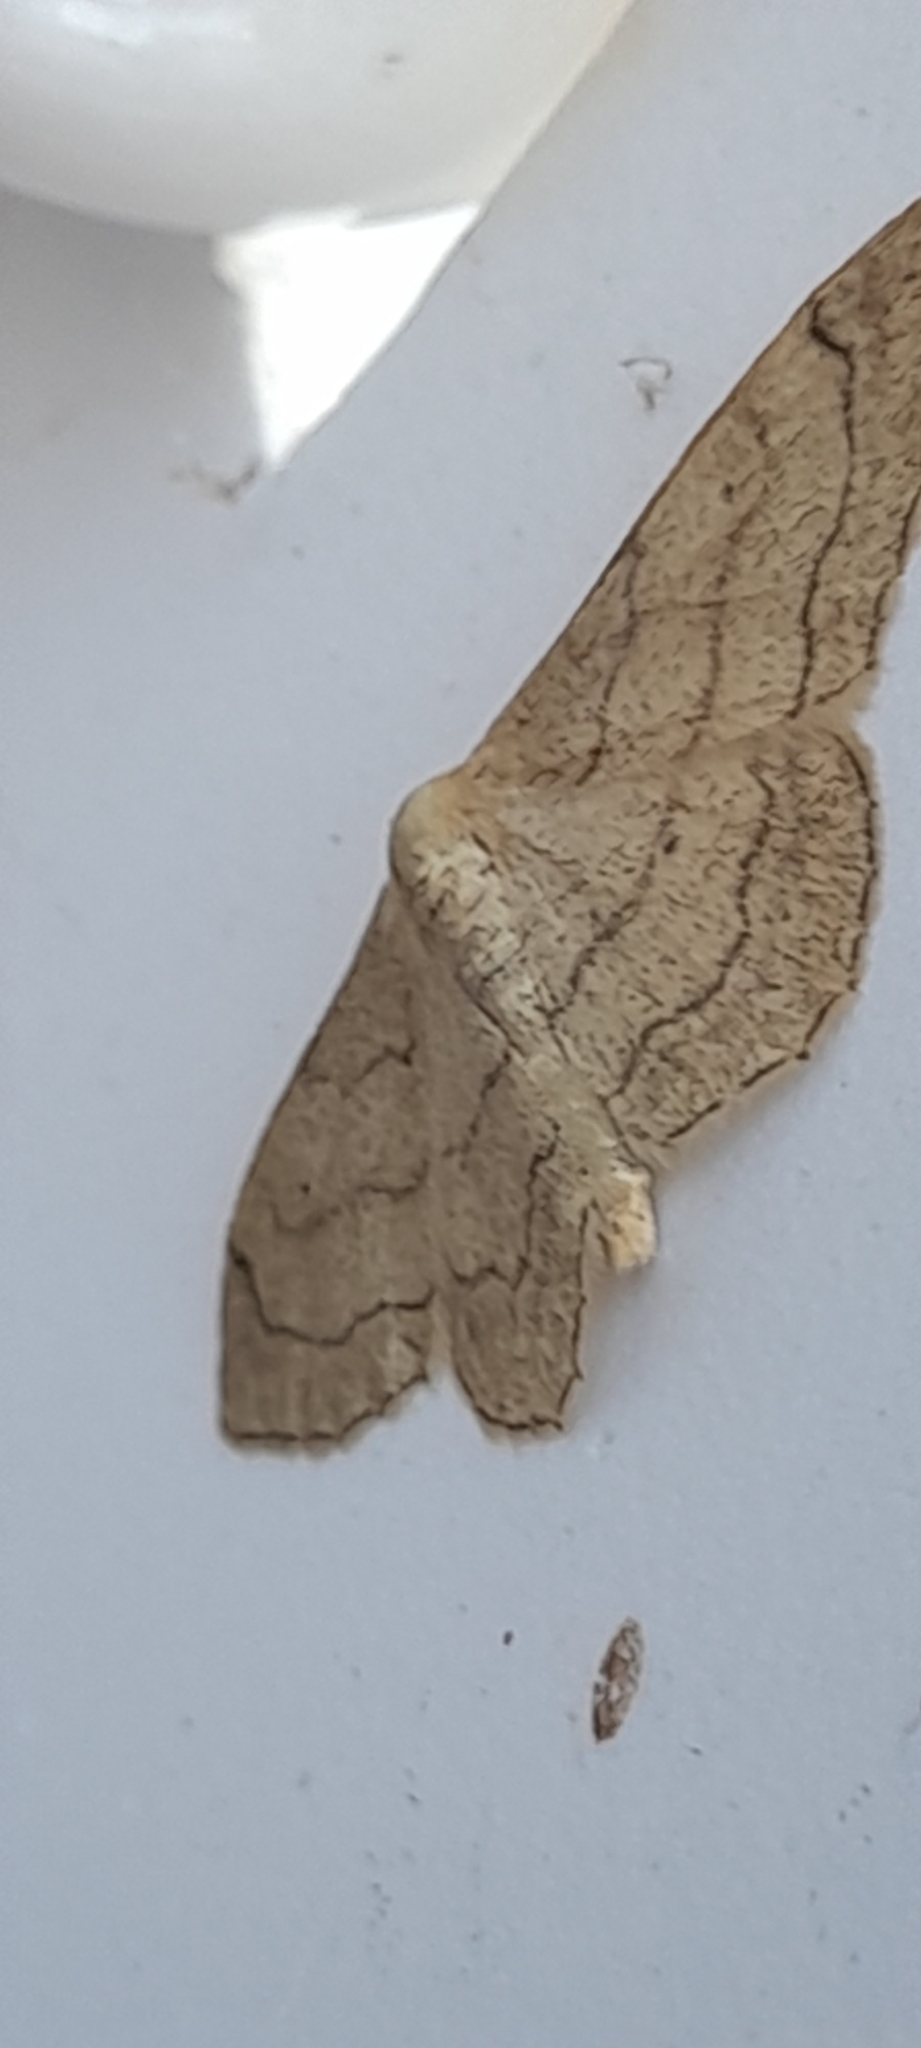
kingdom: Animalia
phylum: Arthropoda
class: Insecta
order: Lepidoptera
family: Geometridae
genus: Idaea
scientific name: Idaea aversata
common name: Riband wave
